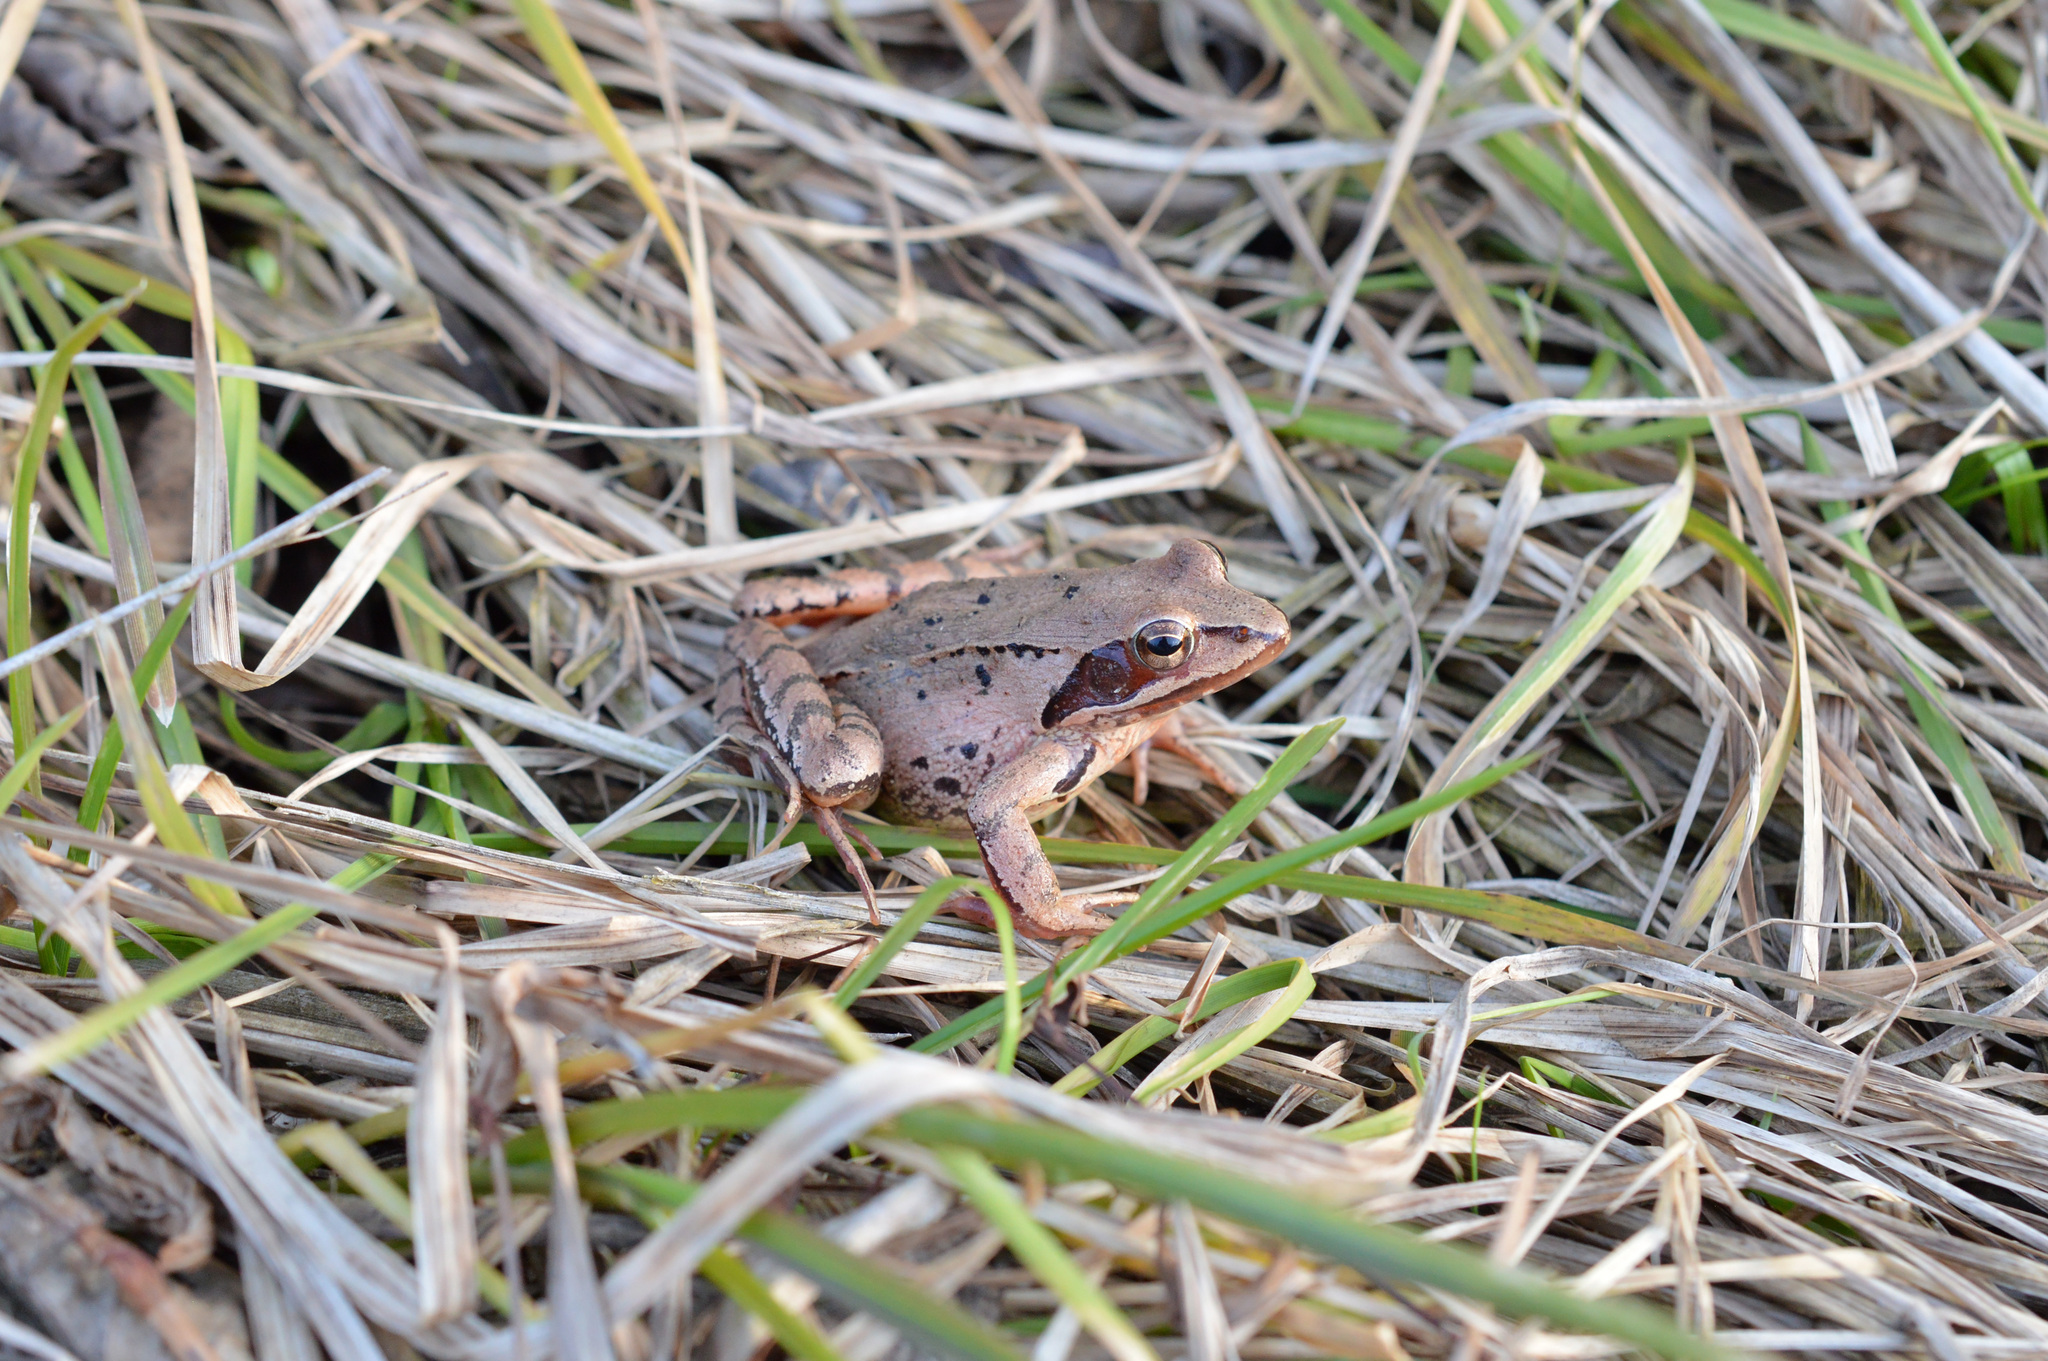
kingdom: Animalia
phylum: Chordata
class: Amphibia
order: Anura
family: Ranidae
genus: Rana
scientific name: Rana dalmatina
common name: Agile frog
